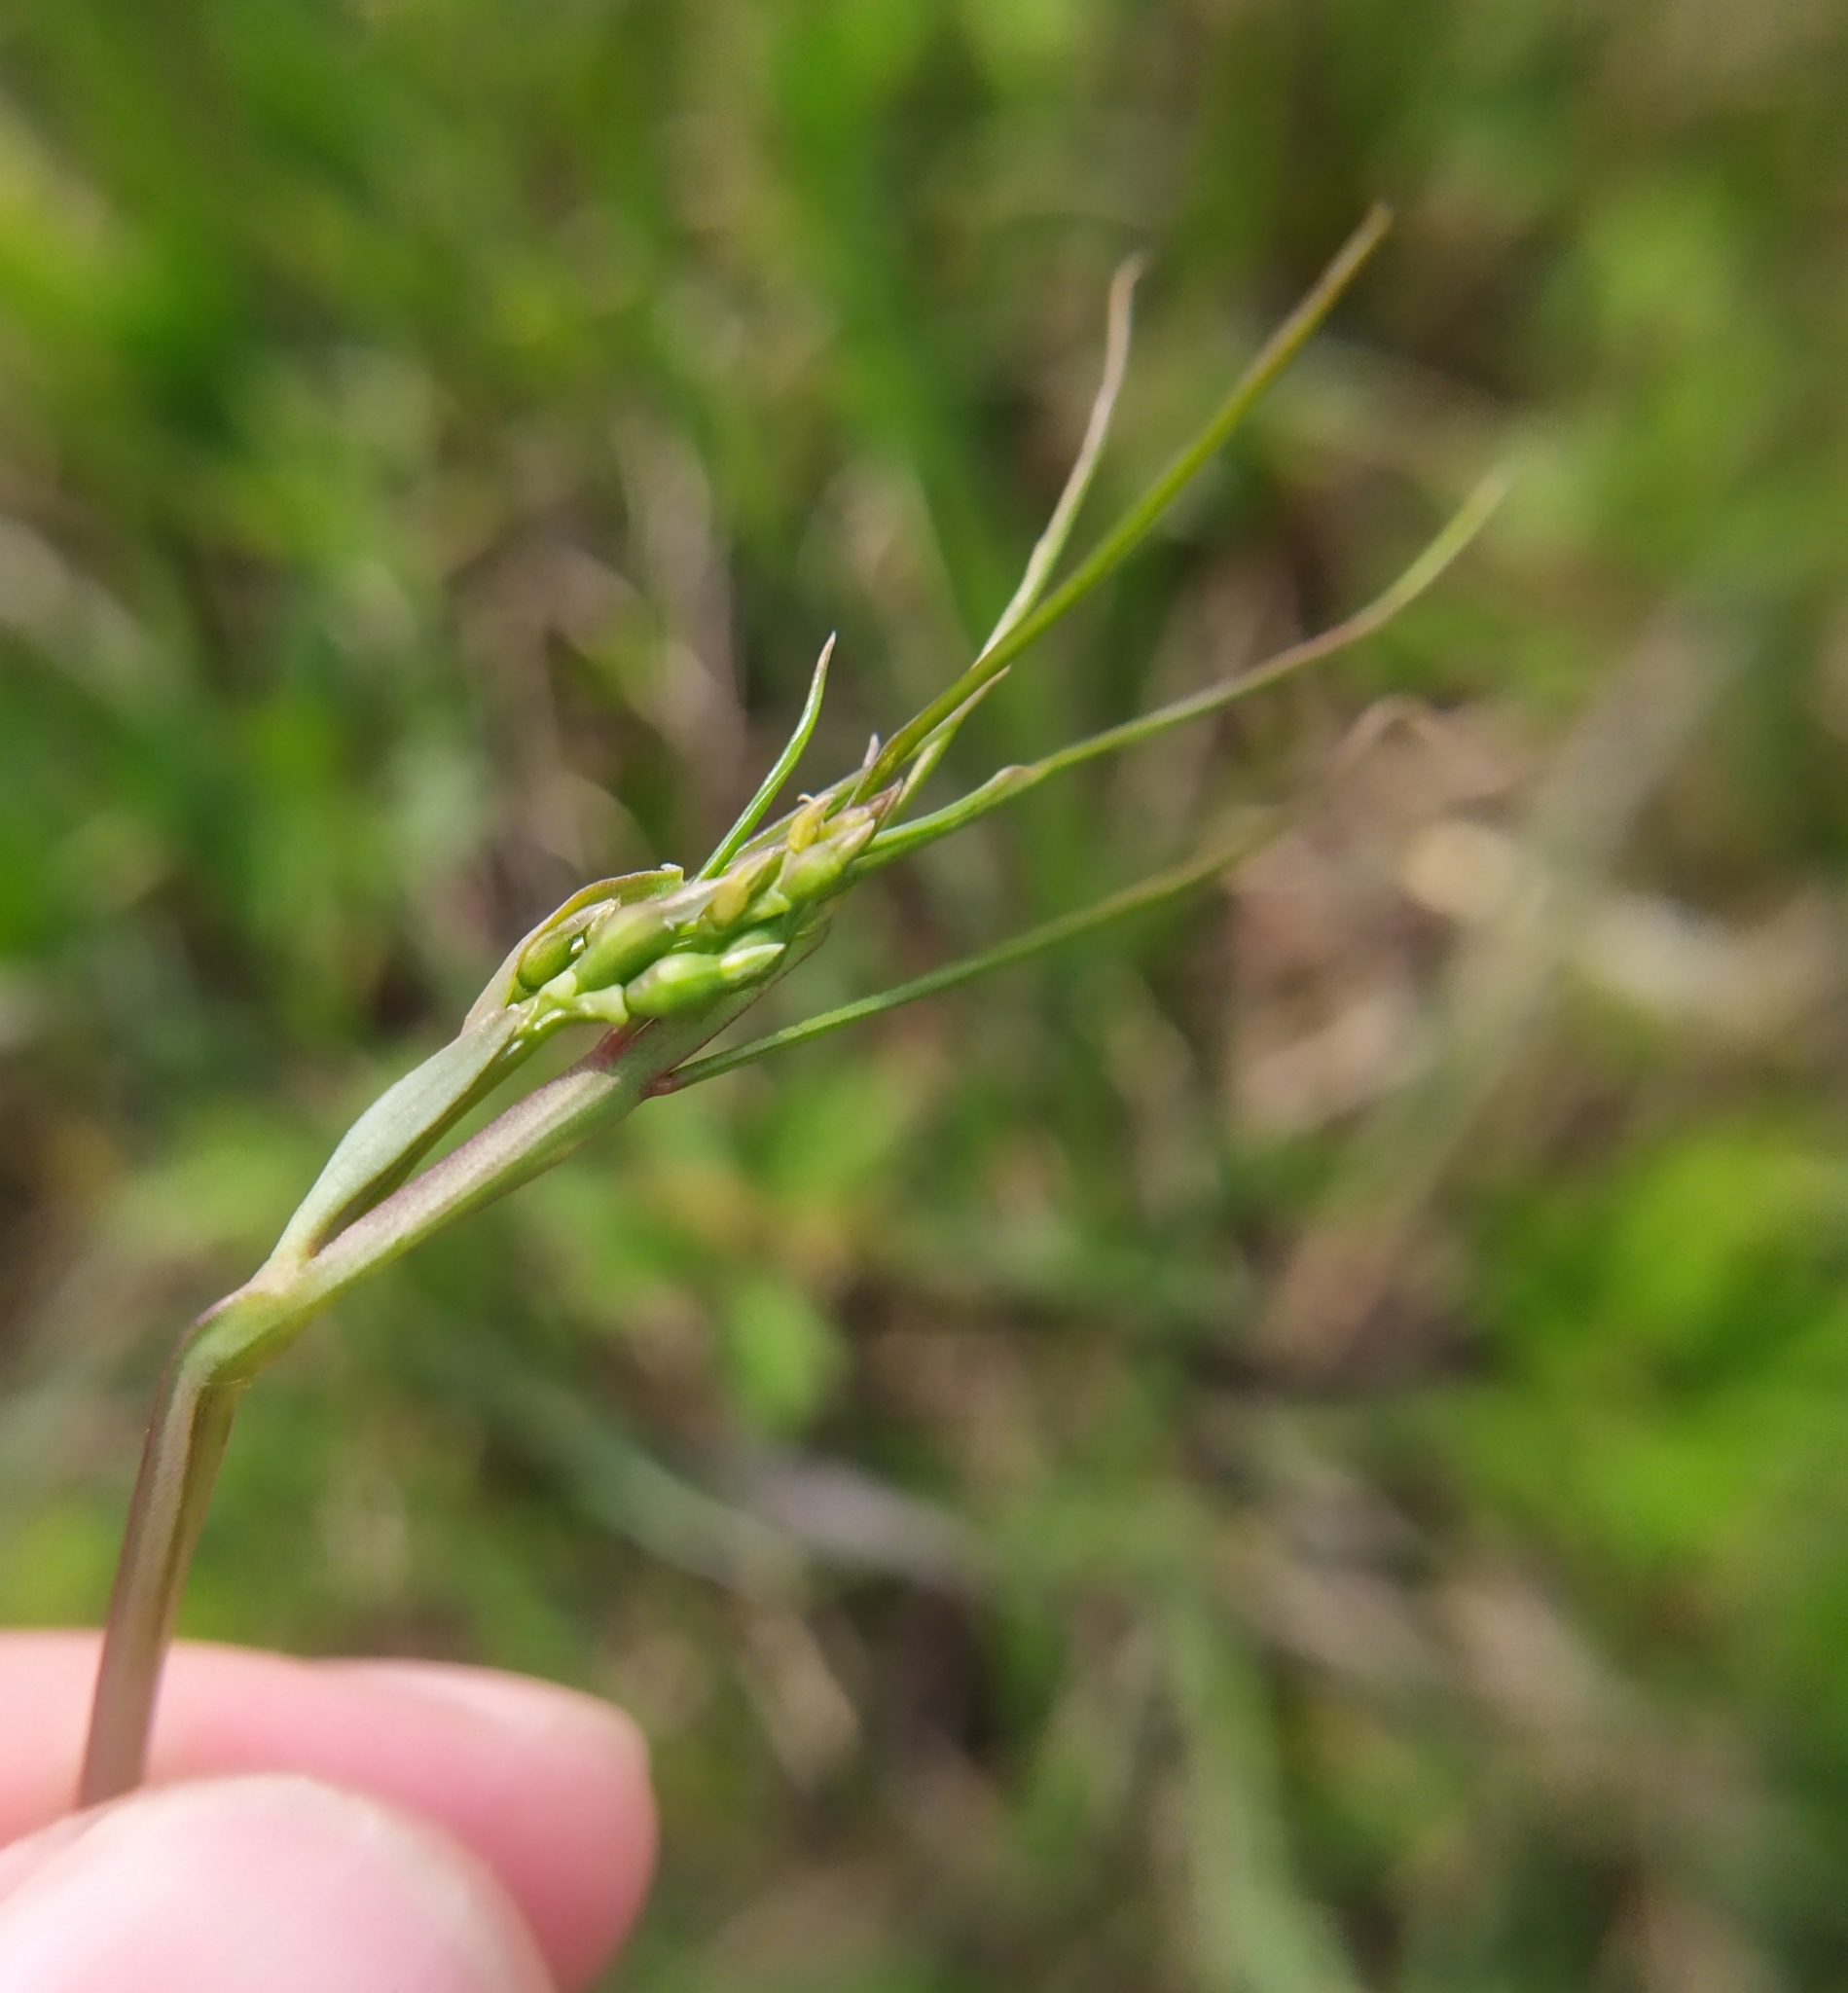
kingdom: Plantae
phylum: Tracheophyta
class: Magnoliopsida
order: Fabales
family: Fabaceae
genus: Lathyrus
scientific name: Lathyrus pannonicus
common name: Pea
